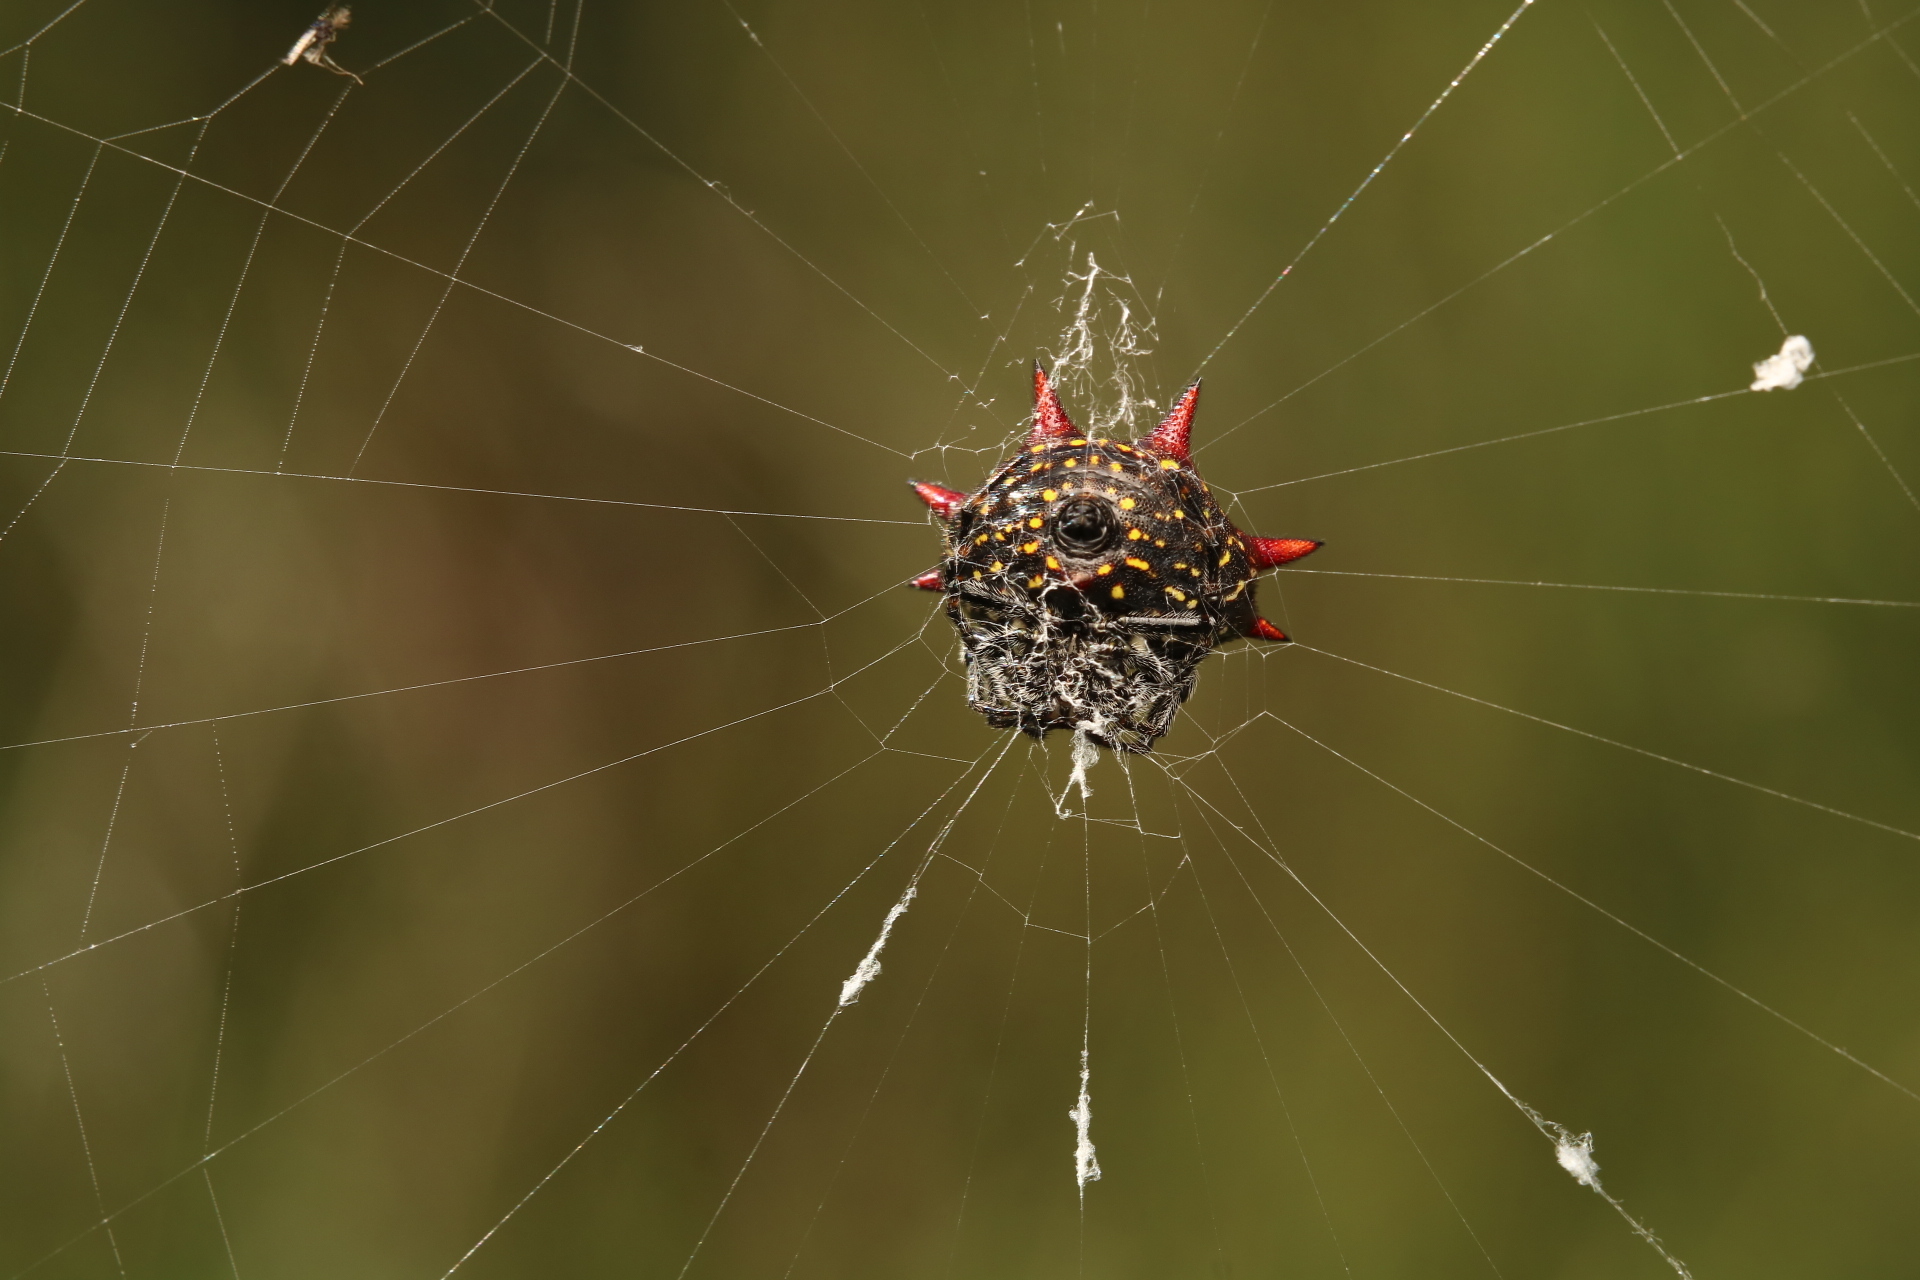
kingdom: Animalia
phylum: Arthropoda
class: Arachnida
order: Araneae
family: Araneidae
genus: Gasteracantha
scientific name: Gasteracantha cancriformis
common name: Orb weavers
